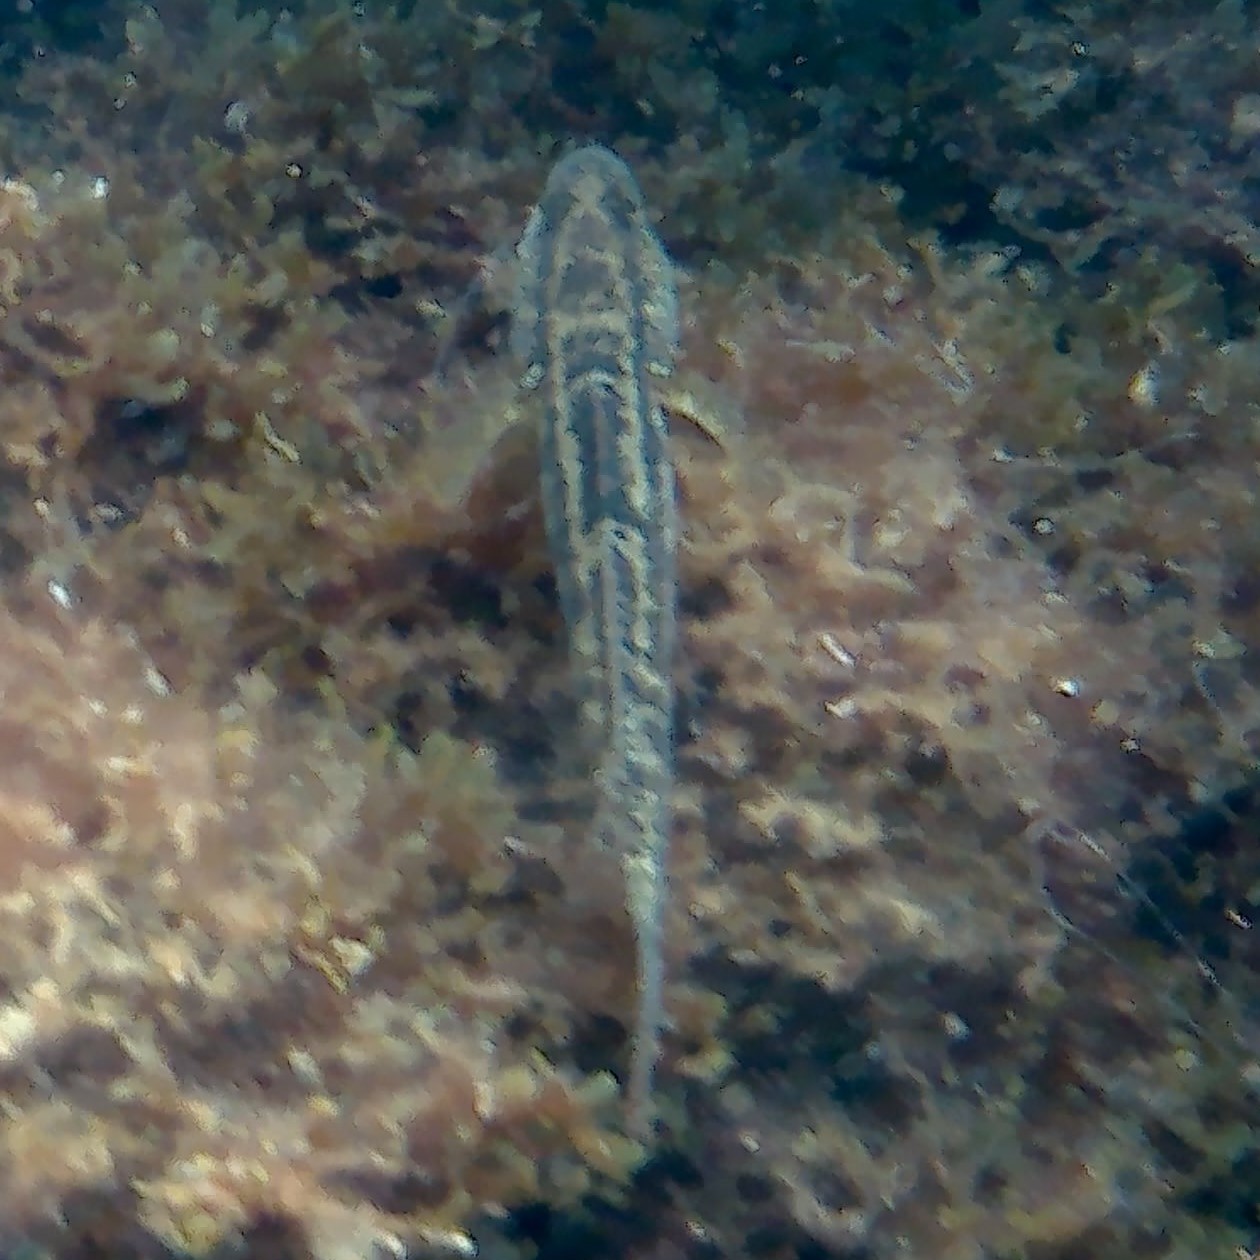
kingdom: Animalia
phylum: Chordata
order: Perciformes
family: Gobiidae
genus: Zosterisessor
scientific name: Zosterisessor ophiocephalus
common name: Grass goby
